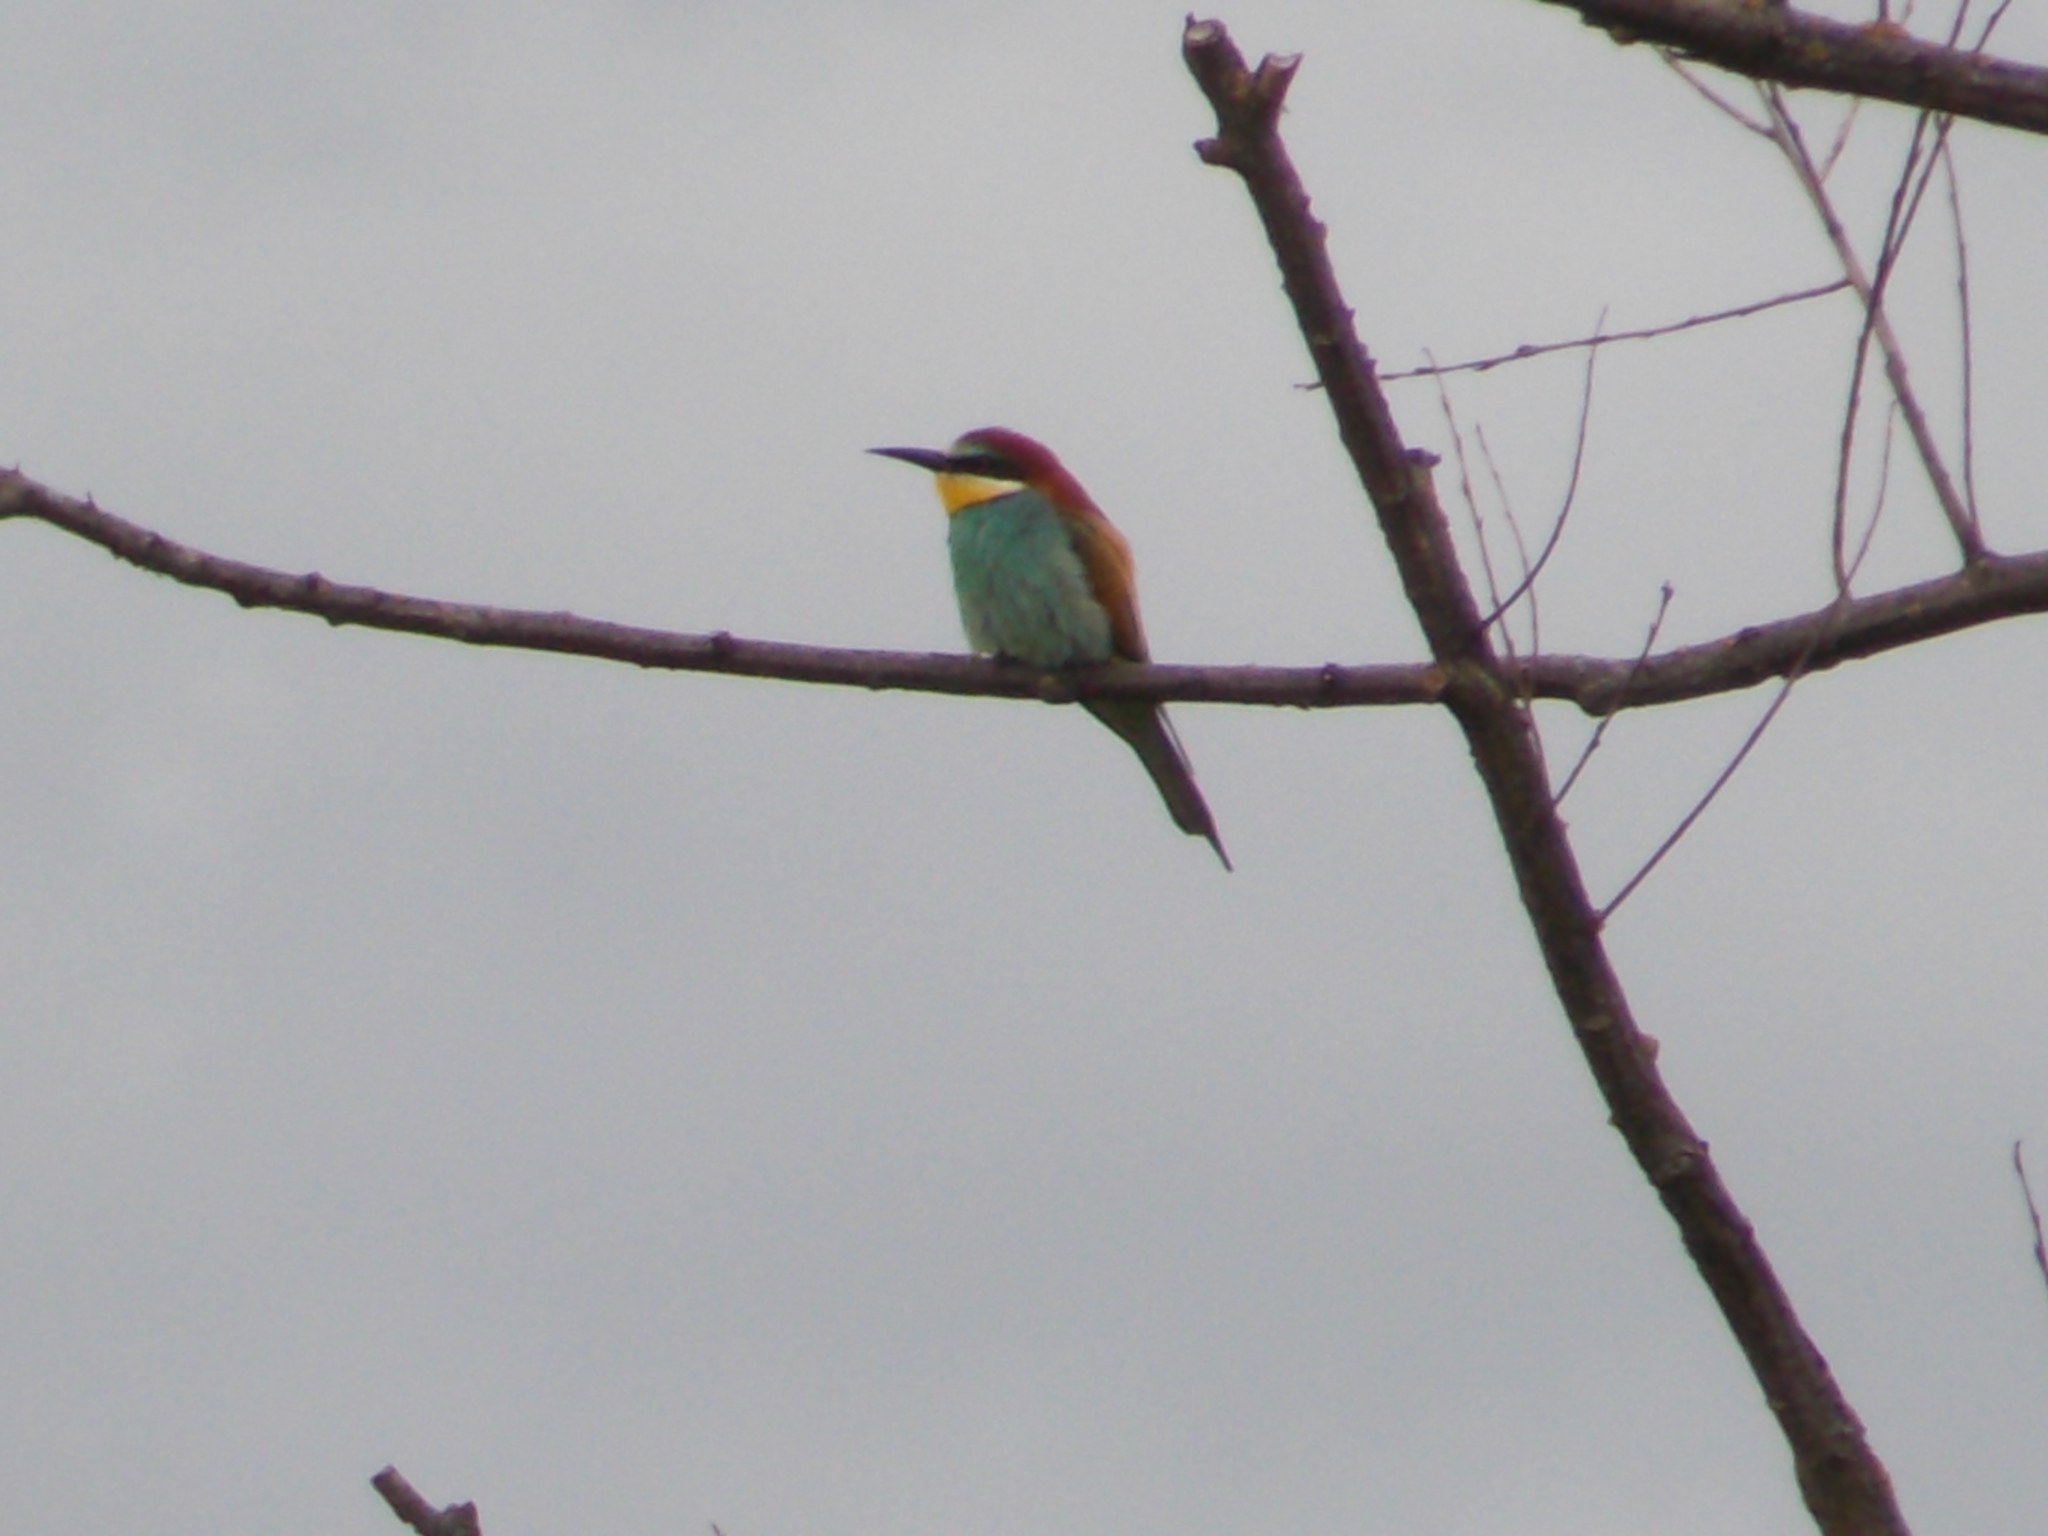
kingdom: Animalia
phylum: Chordata
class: Aves
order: Coraciiformes
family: Meropidae
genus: Merops
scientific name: Merops apiaster
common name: European bee-eater
